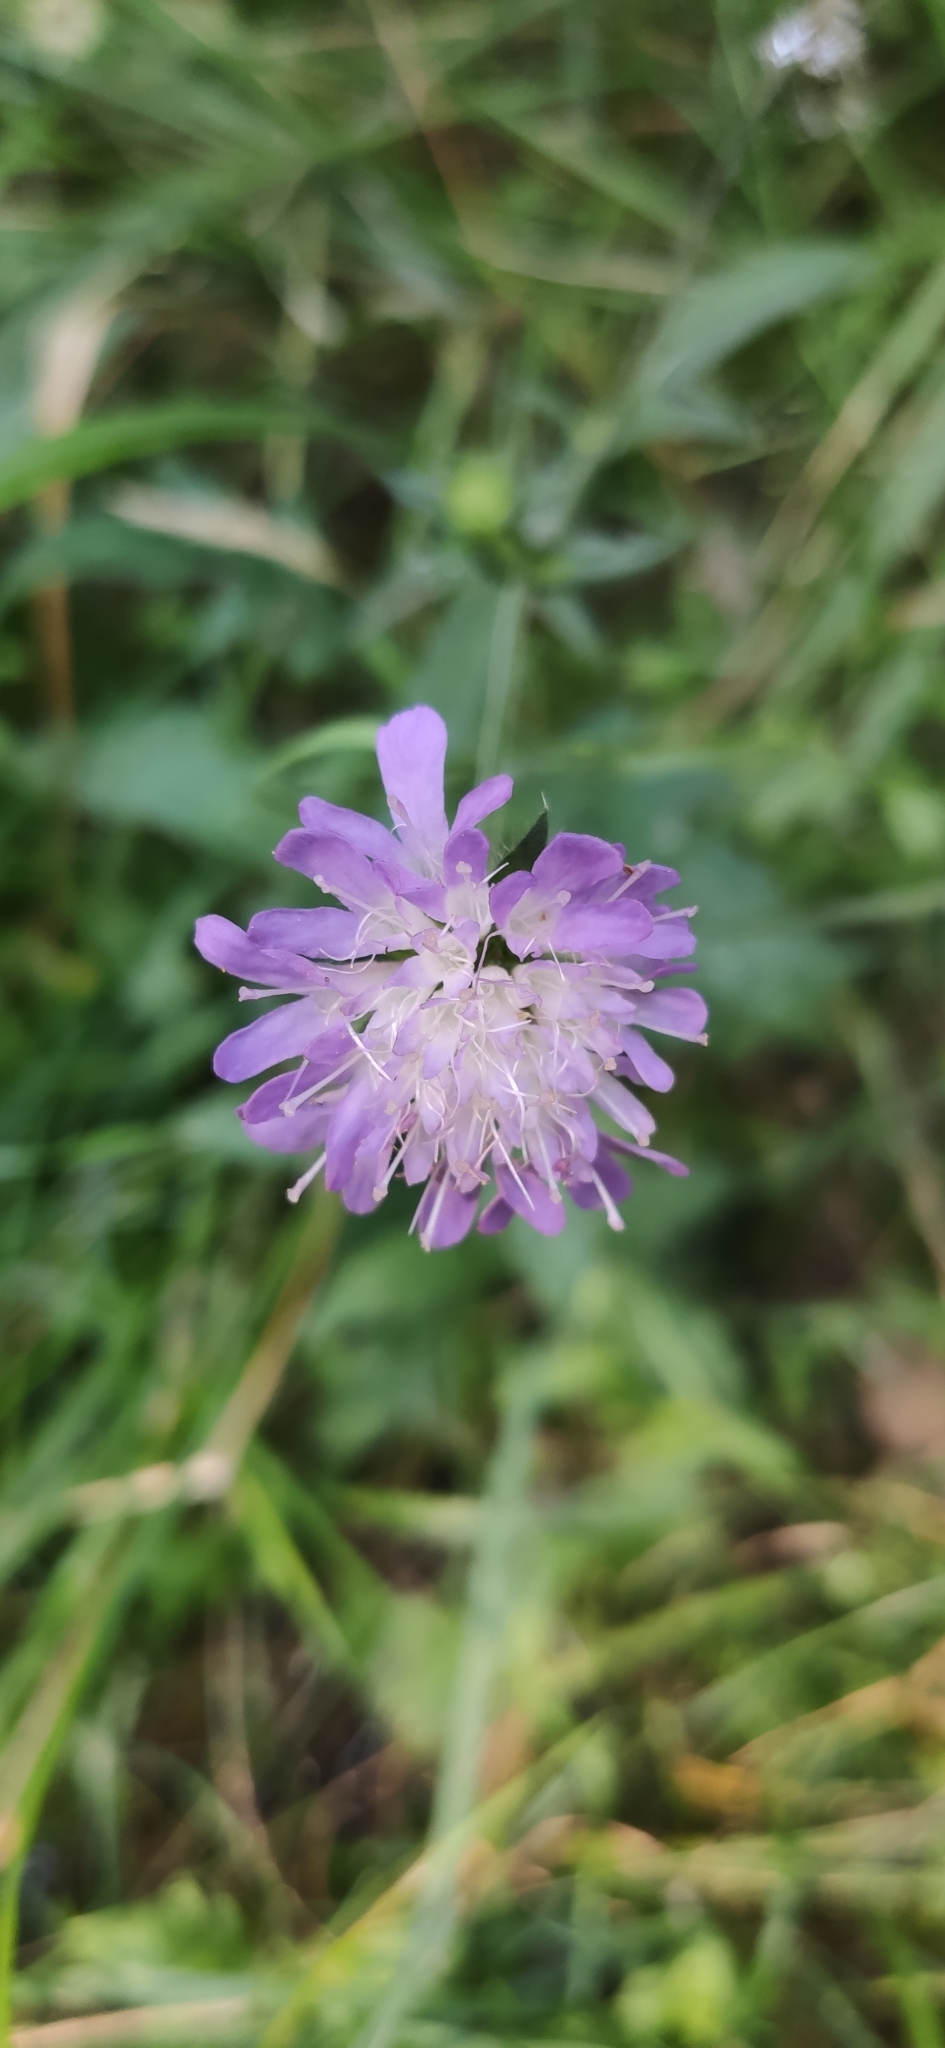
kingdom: Plantae
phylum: Tracheophyta
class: Magnoliopsida
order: Dipsacales
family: Caprifoliaceae
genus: Knautia
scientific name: Knautia arvensis
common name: Field scabiosa
